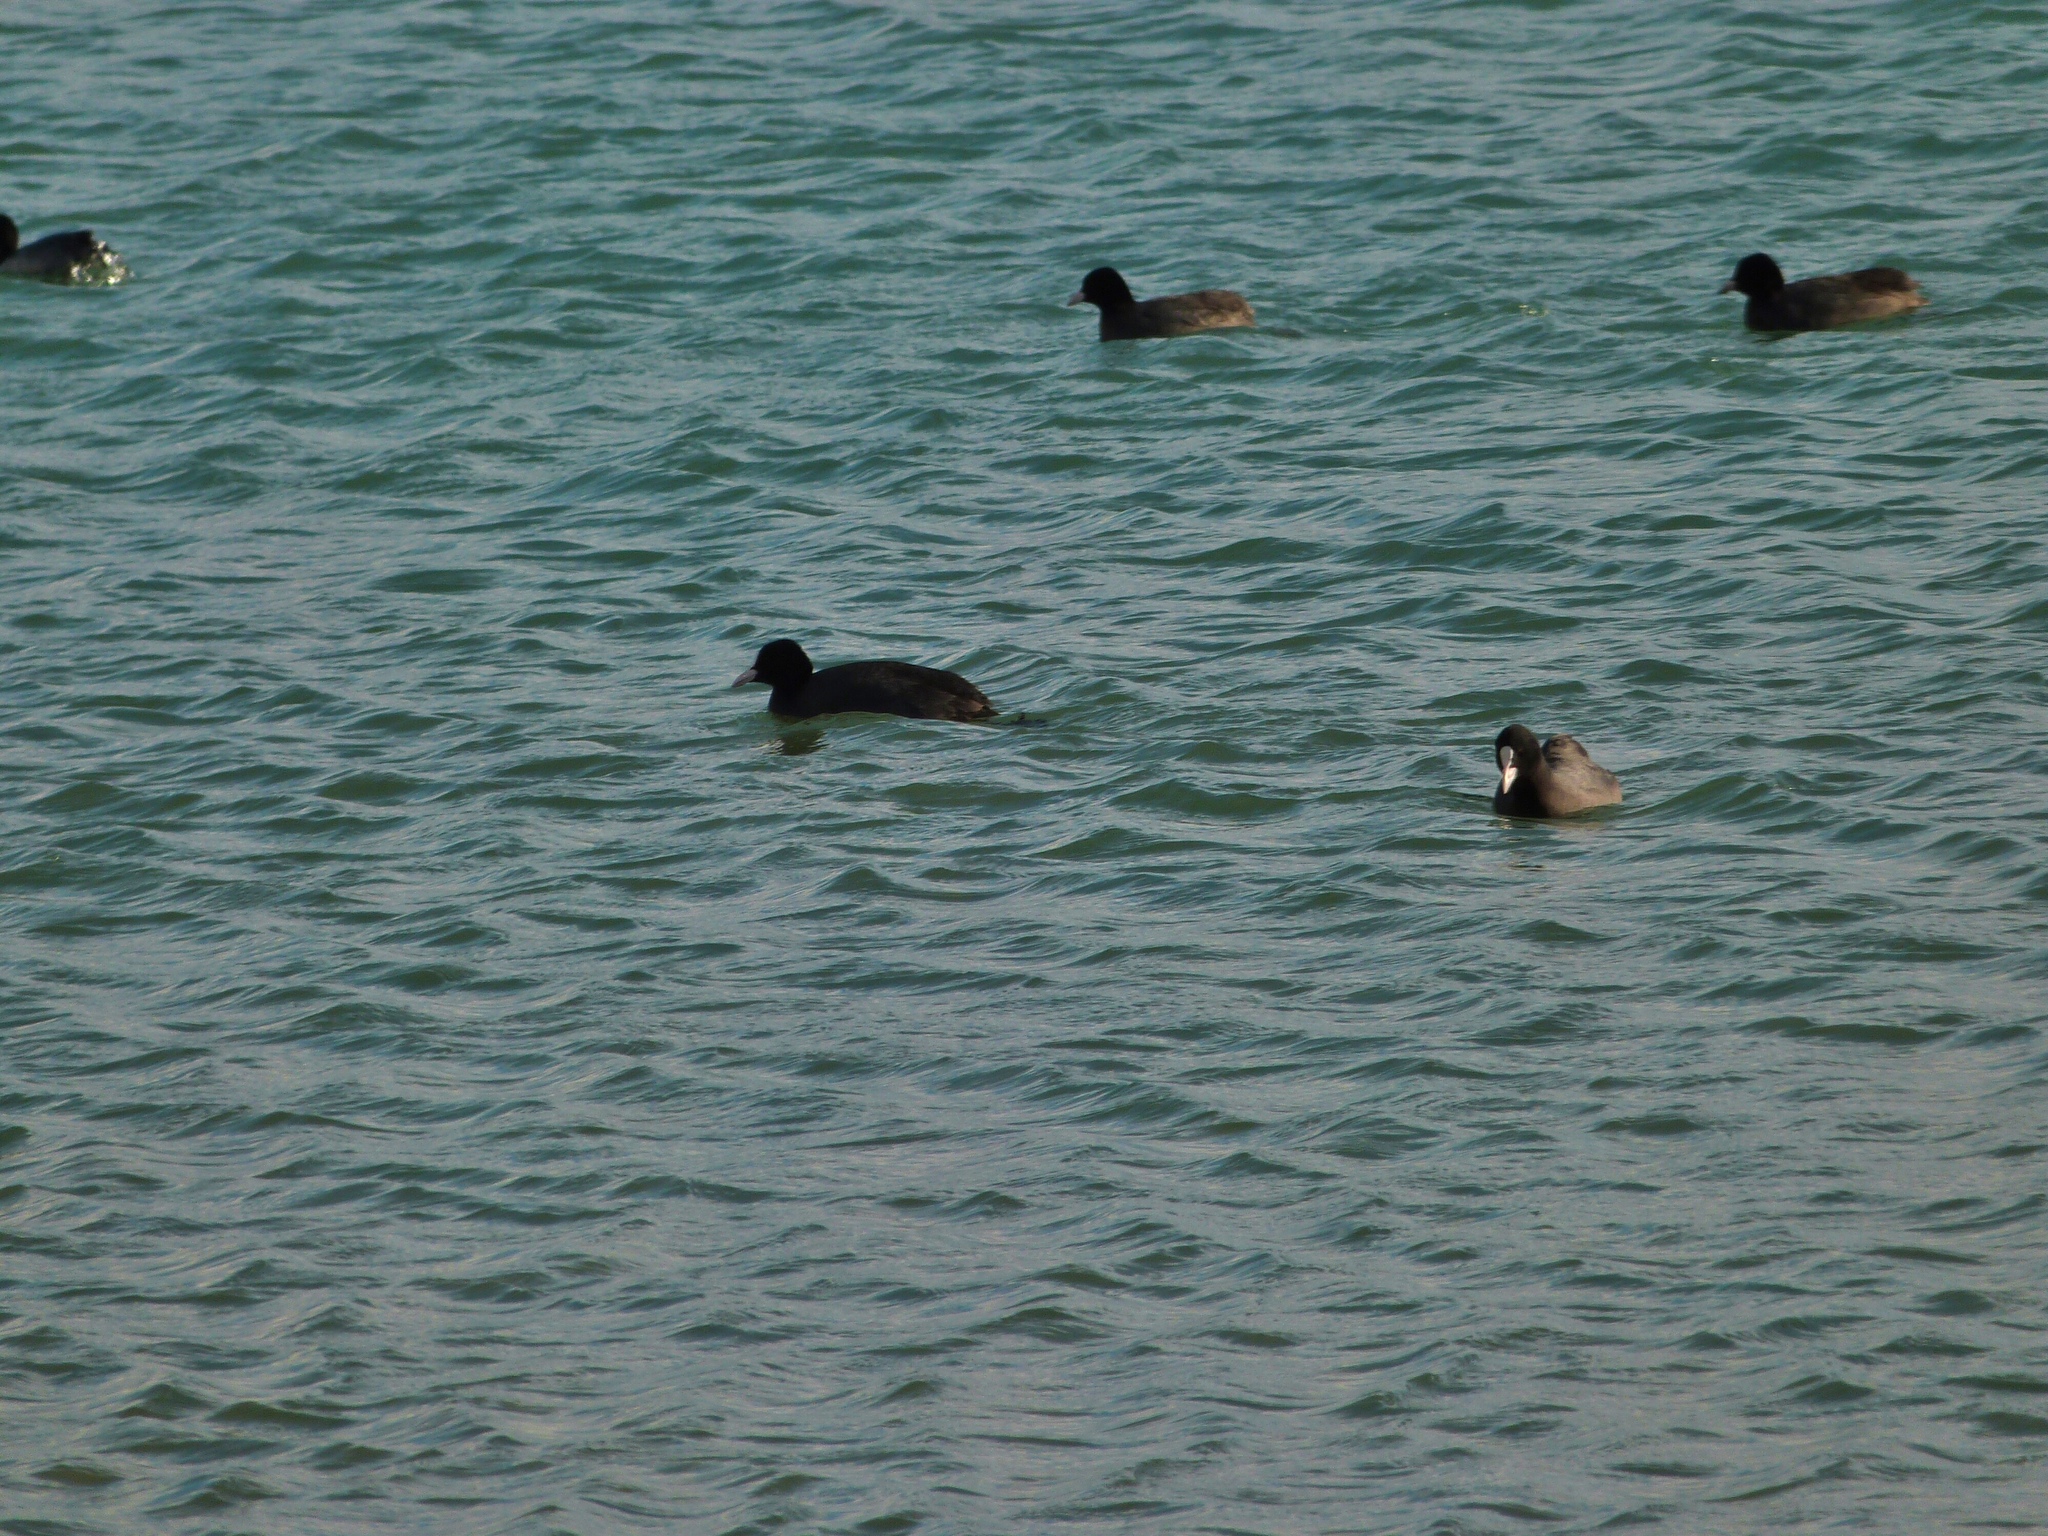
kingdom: Animalia
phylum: Chordata
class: Aves
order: Gruiformes
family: Rallidae
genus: Fulica
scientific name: Fulica atra
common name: Eurasian coot
